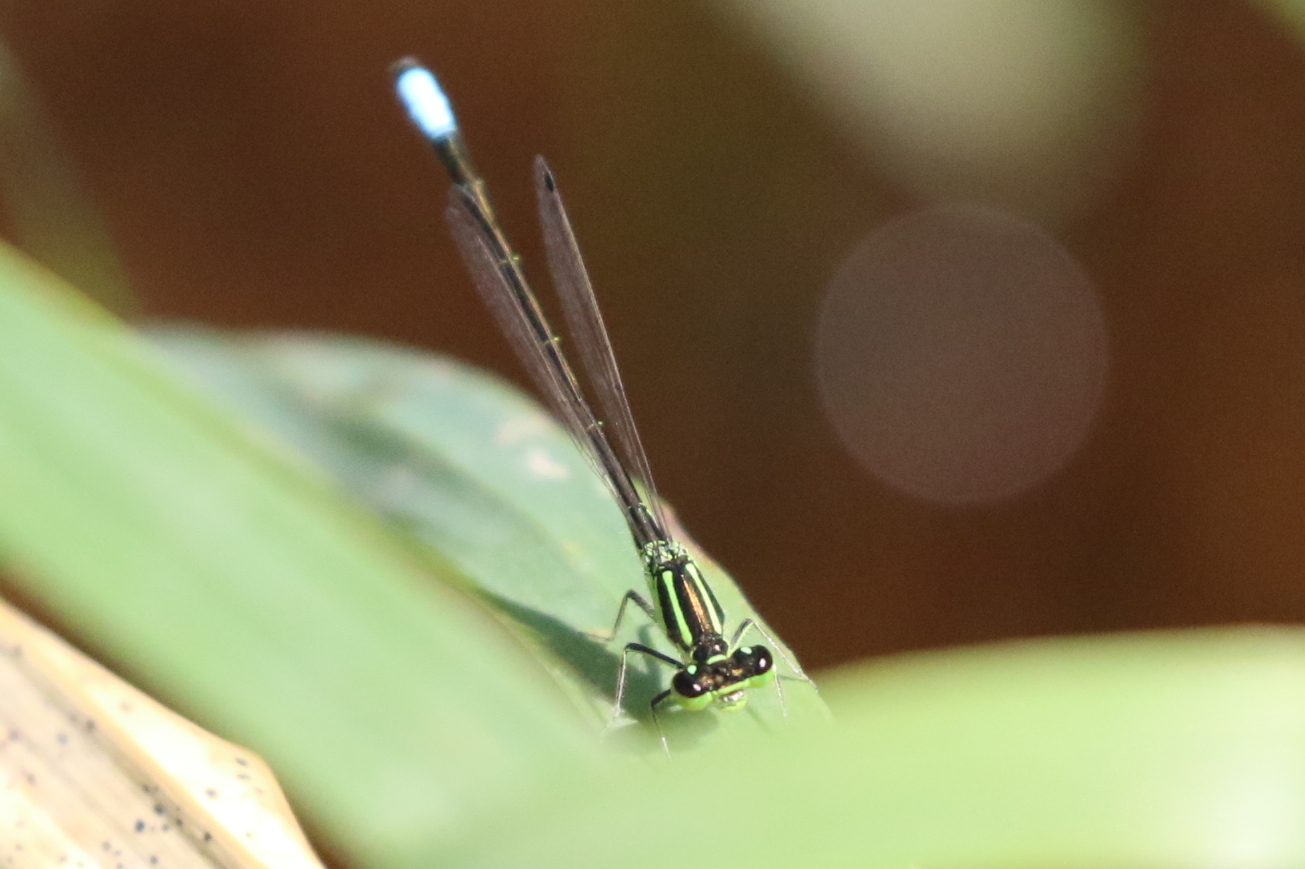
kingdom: Animalia
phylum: Arthropoda
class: Insecta
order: Odonata
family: Coenagrionidae
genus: Ischnura
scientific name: Ischnura verticalis
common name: Eastern forktail
